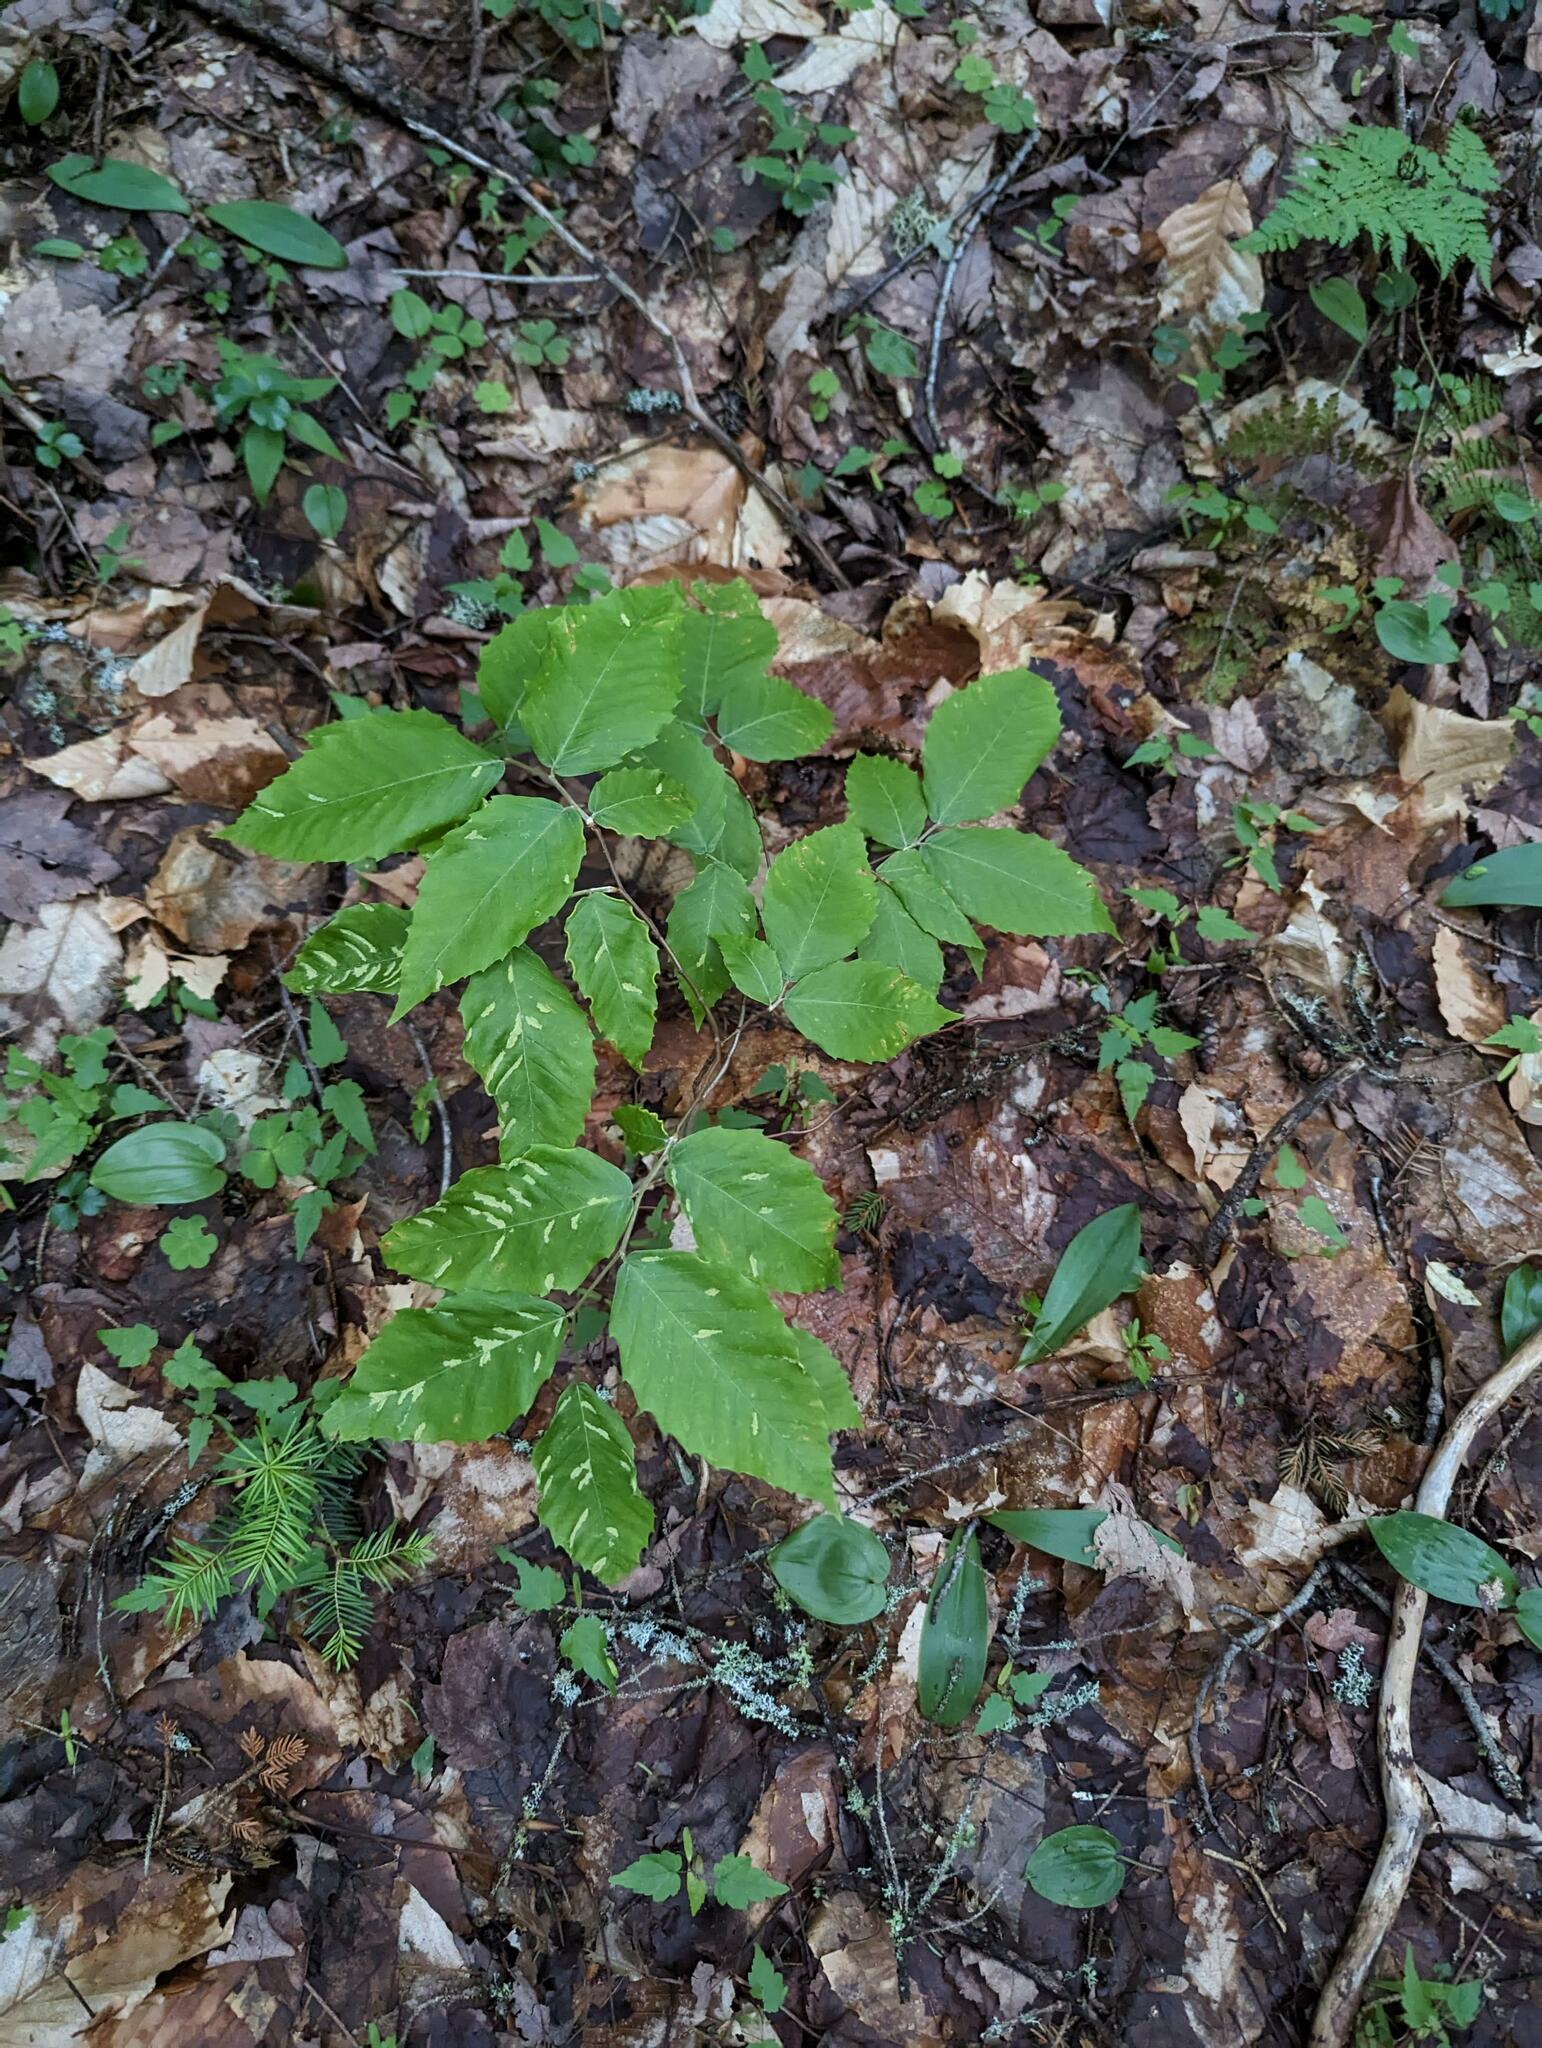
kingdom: Animalia
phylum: Arthropoda
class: Arachnida
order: Trombidiformes
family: Eriophyidae
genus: Acalitus
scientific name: Acalitus
